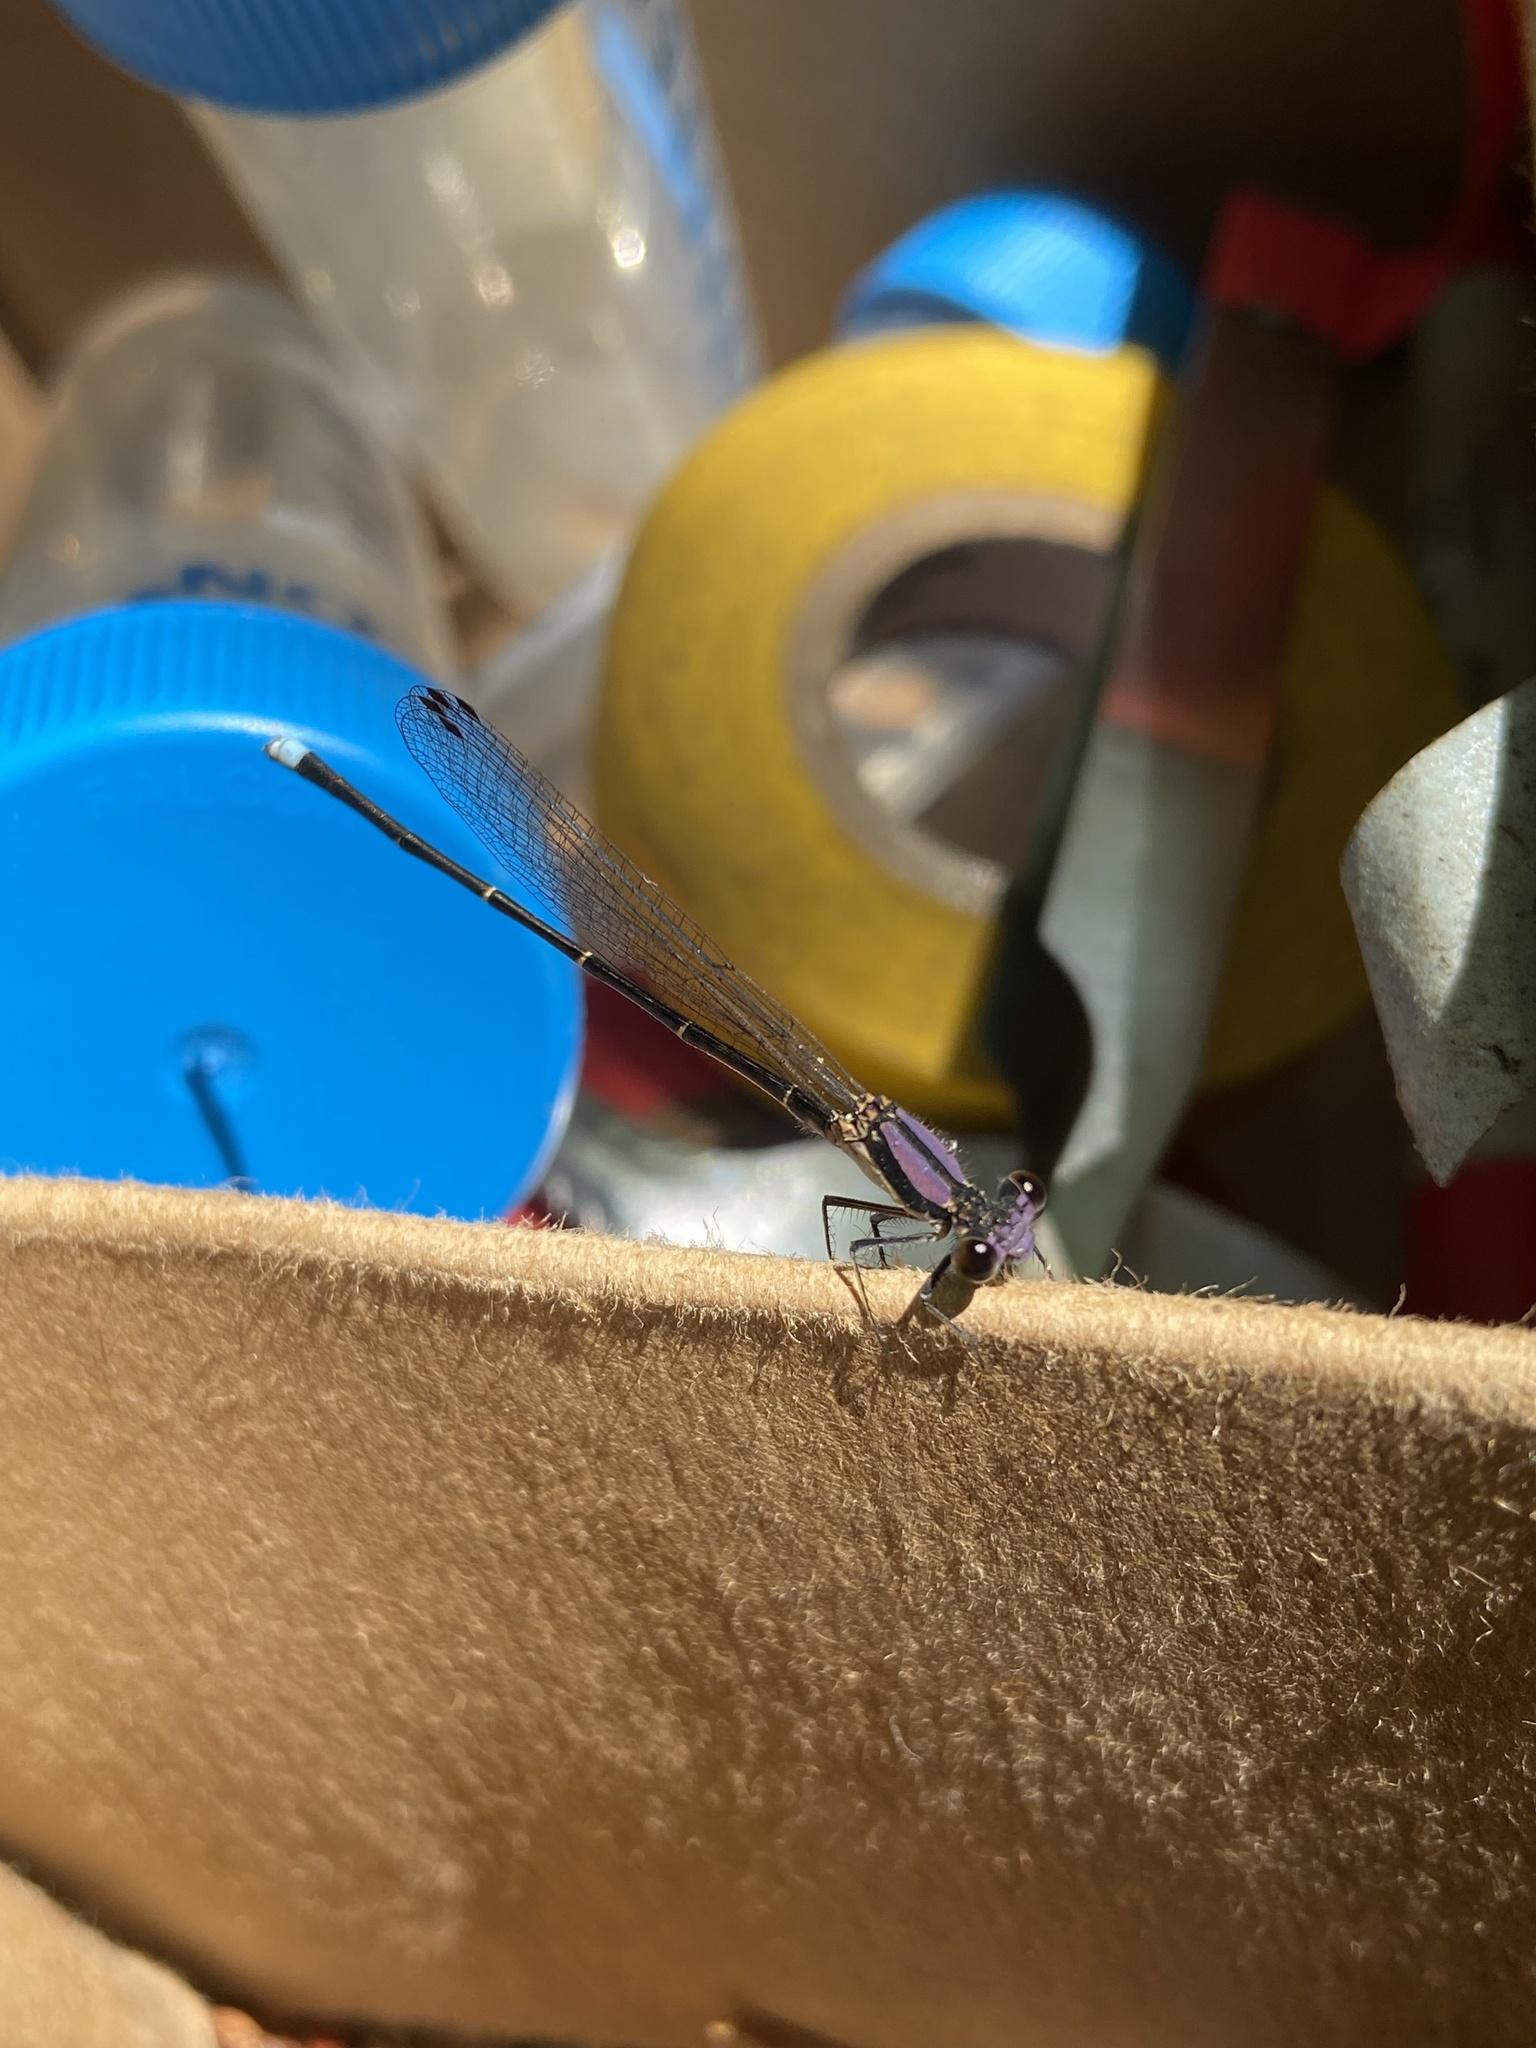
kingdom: Animalia
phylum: Arthropoda
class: Insecta
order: Odonata
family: Coenagrionidae
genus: Argia
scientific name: Argia tibialis
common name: Blue-tipped dancer
